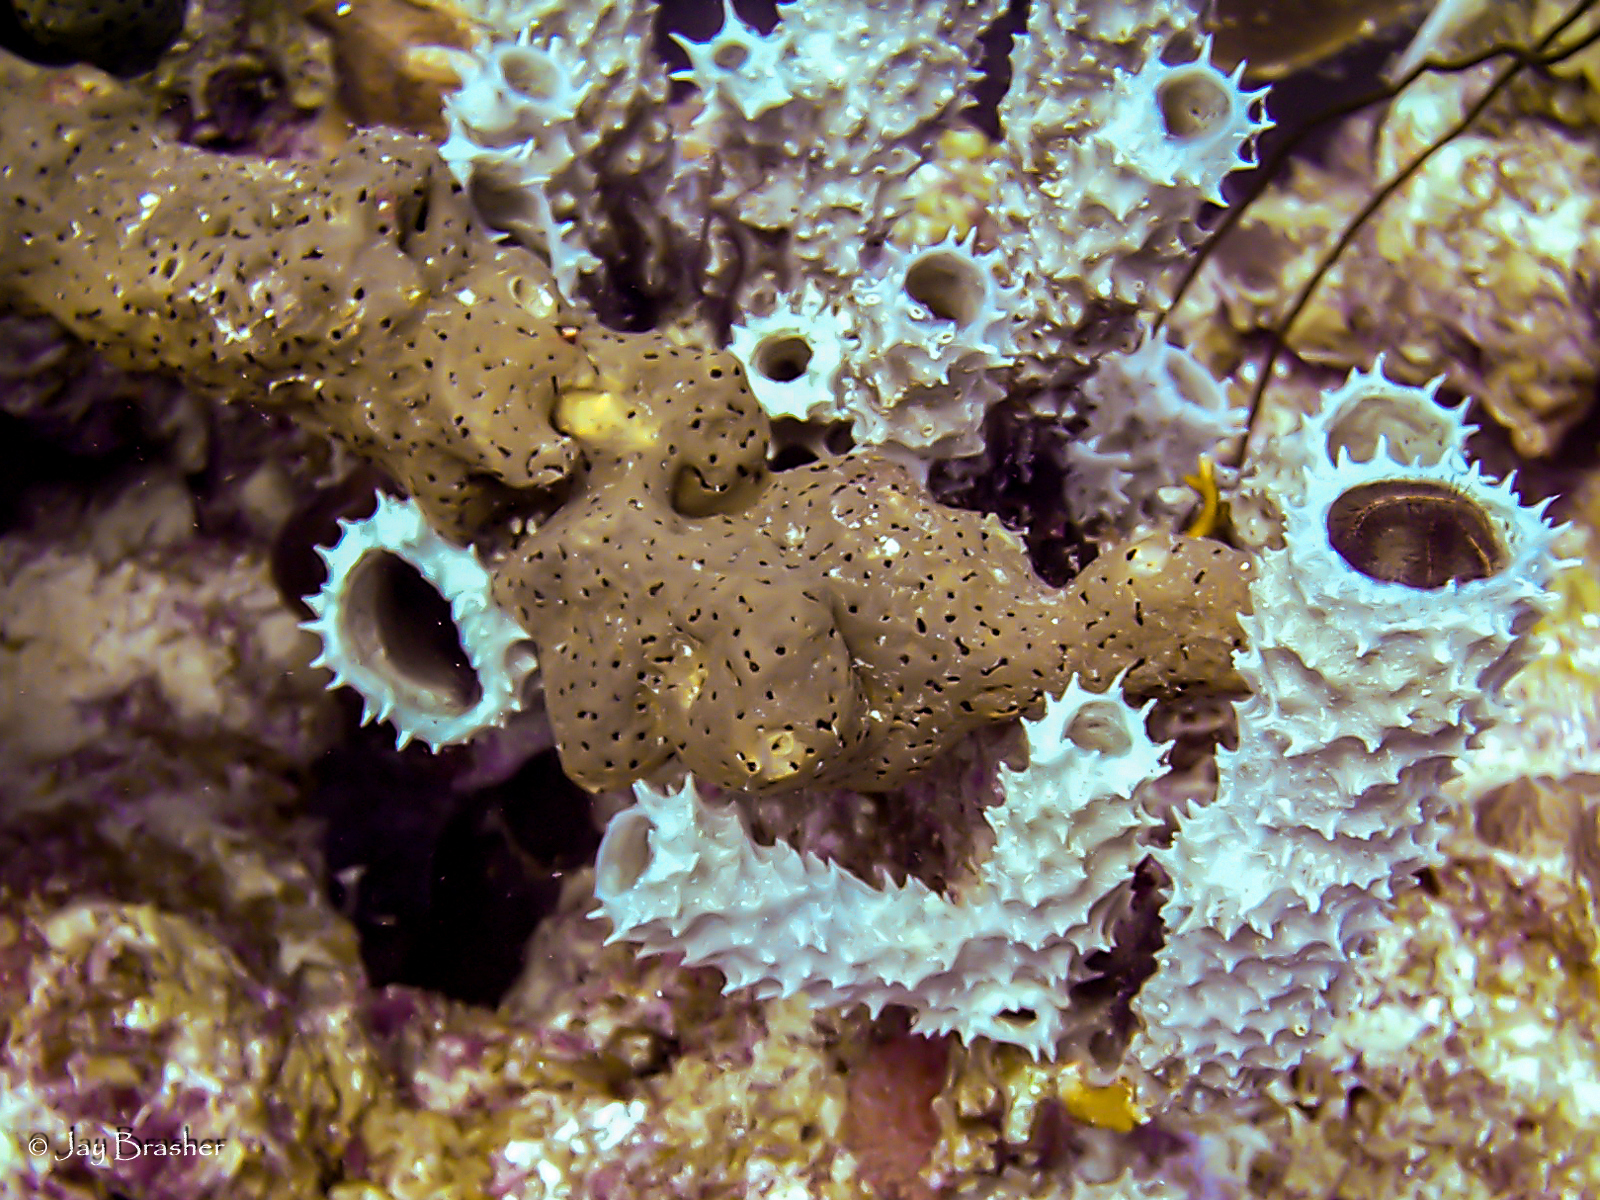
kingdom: Animalia
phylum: Porifera
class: Demospongiae
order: Agelasida
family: Agelasidae
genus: Agelas
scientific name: Agelas conifera
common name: Brown tube sponge
